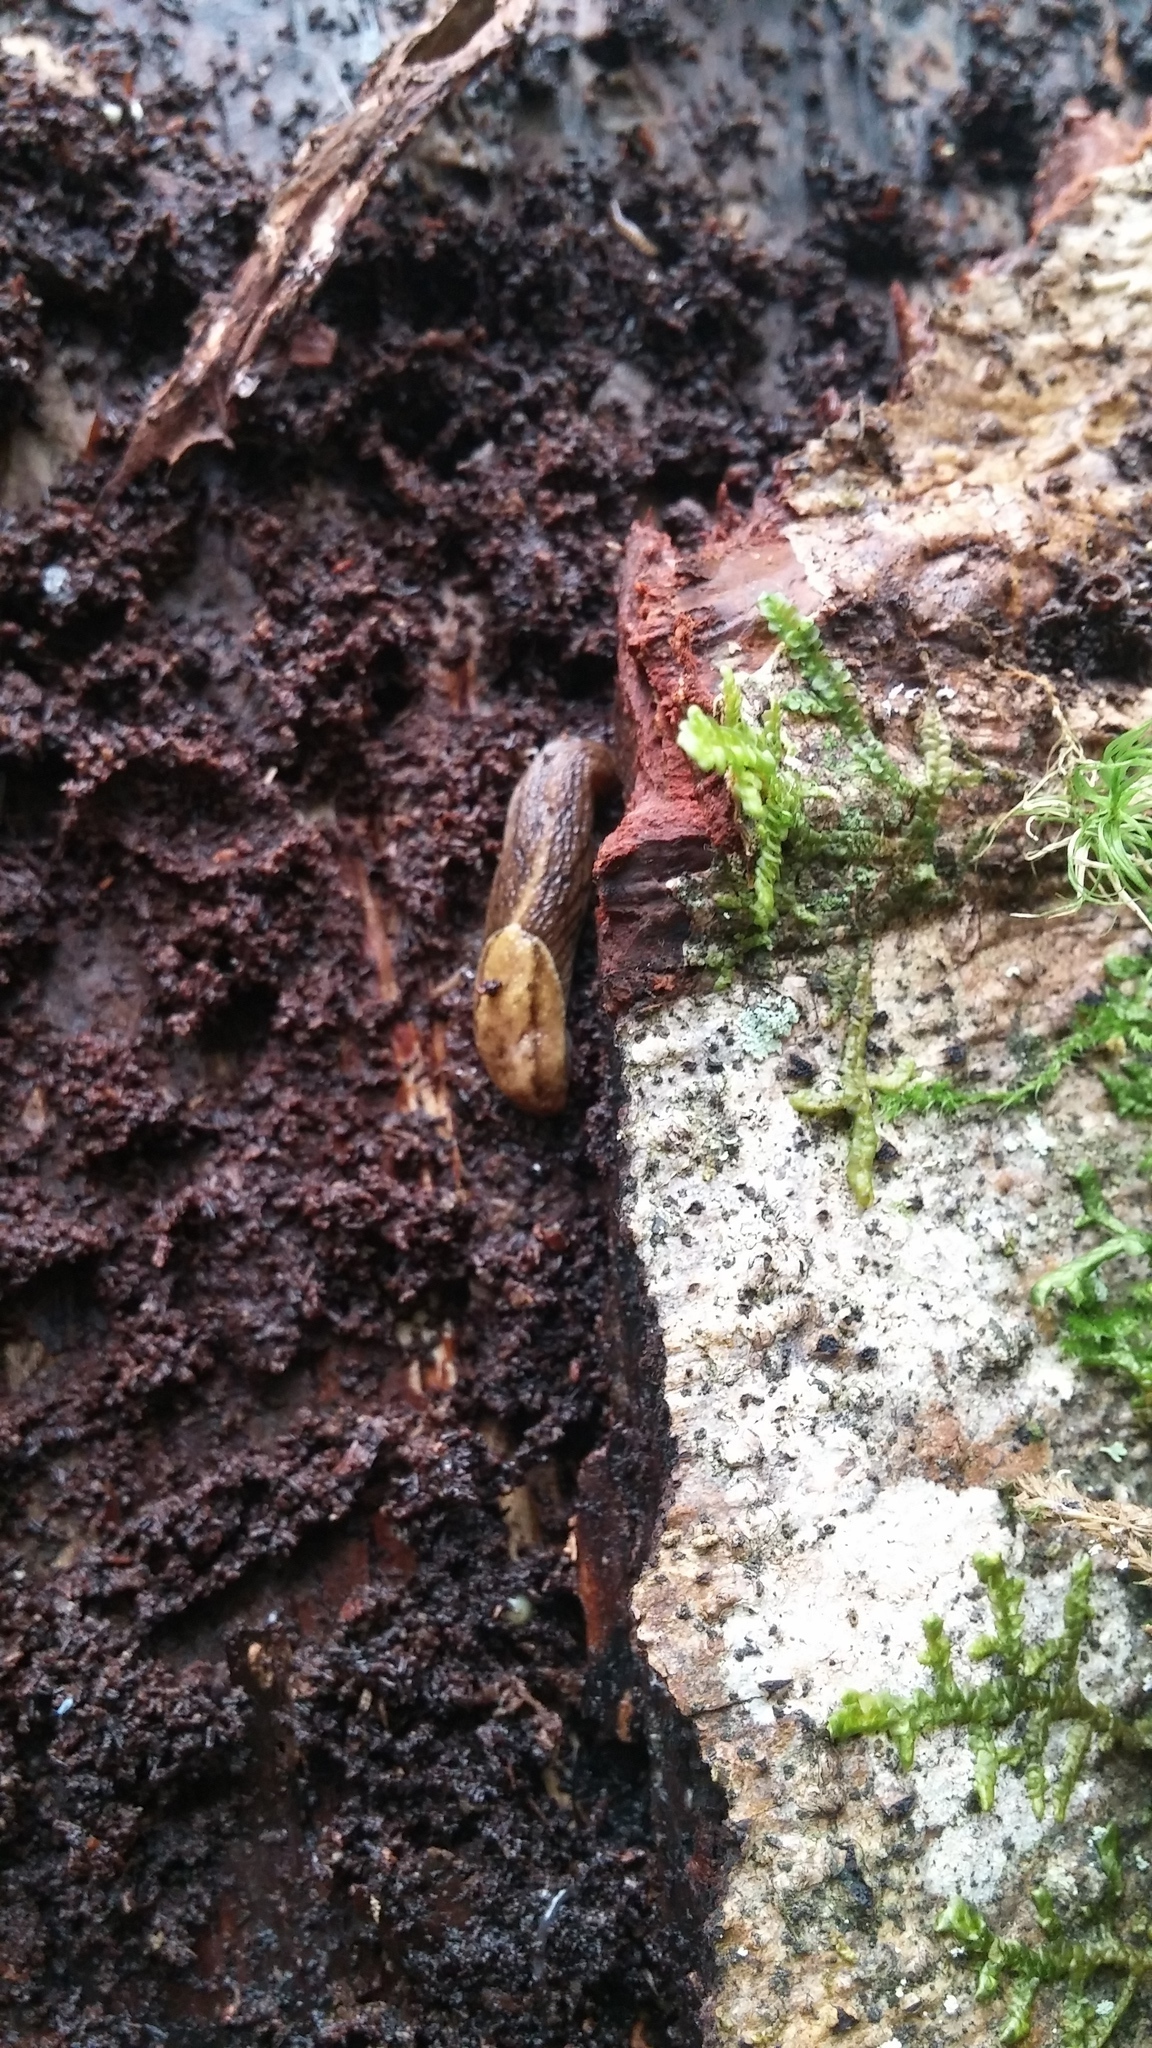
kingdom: Animalia
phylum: Mollusca
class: Gastropoda
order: Stylommatophora
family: Ariolimacidae
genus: Prophysaon
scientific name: Prophysaon andersonii
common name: Reticulate taildropper
